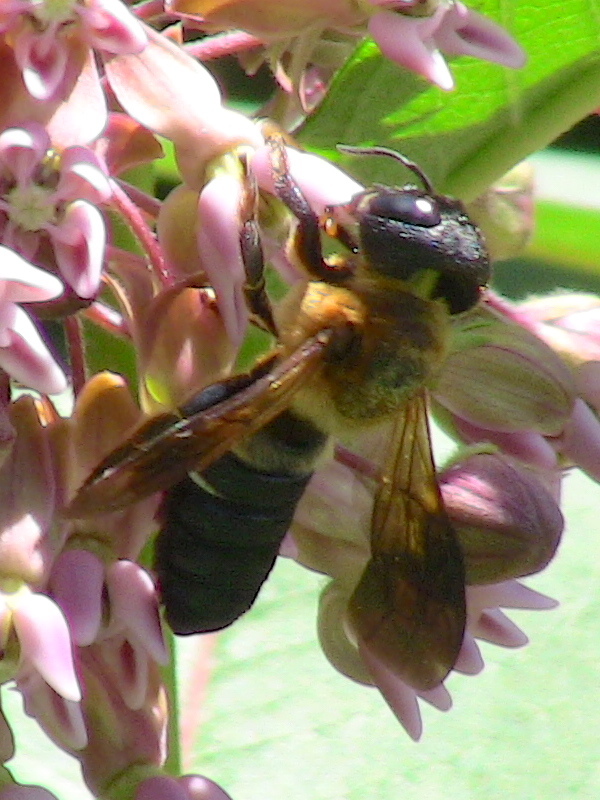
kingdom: Animalia
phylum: Arthropoda
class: Insecta
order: Hymenoptera
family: Megachilidae
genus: Megachile
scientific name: Megachile sculpturalis
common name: Sculptured resin bee
